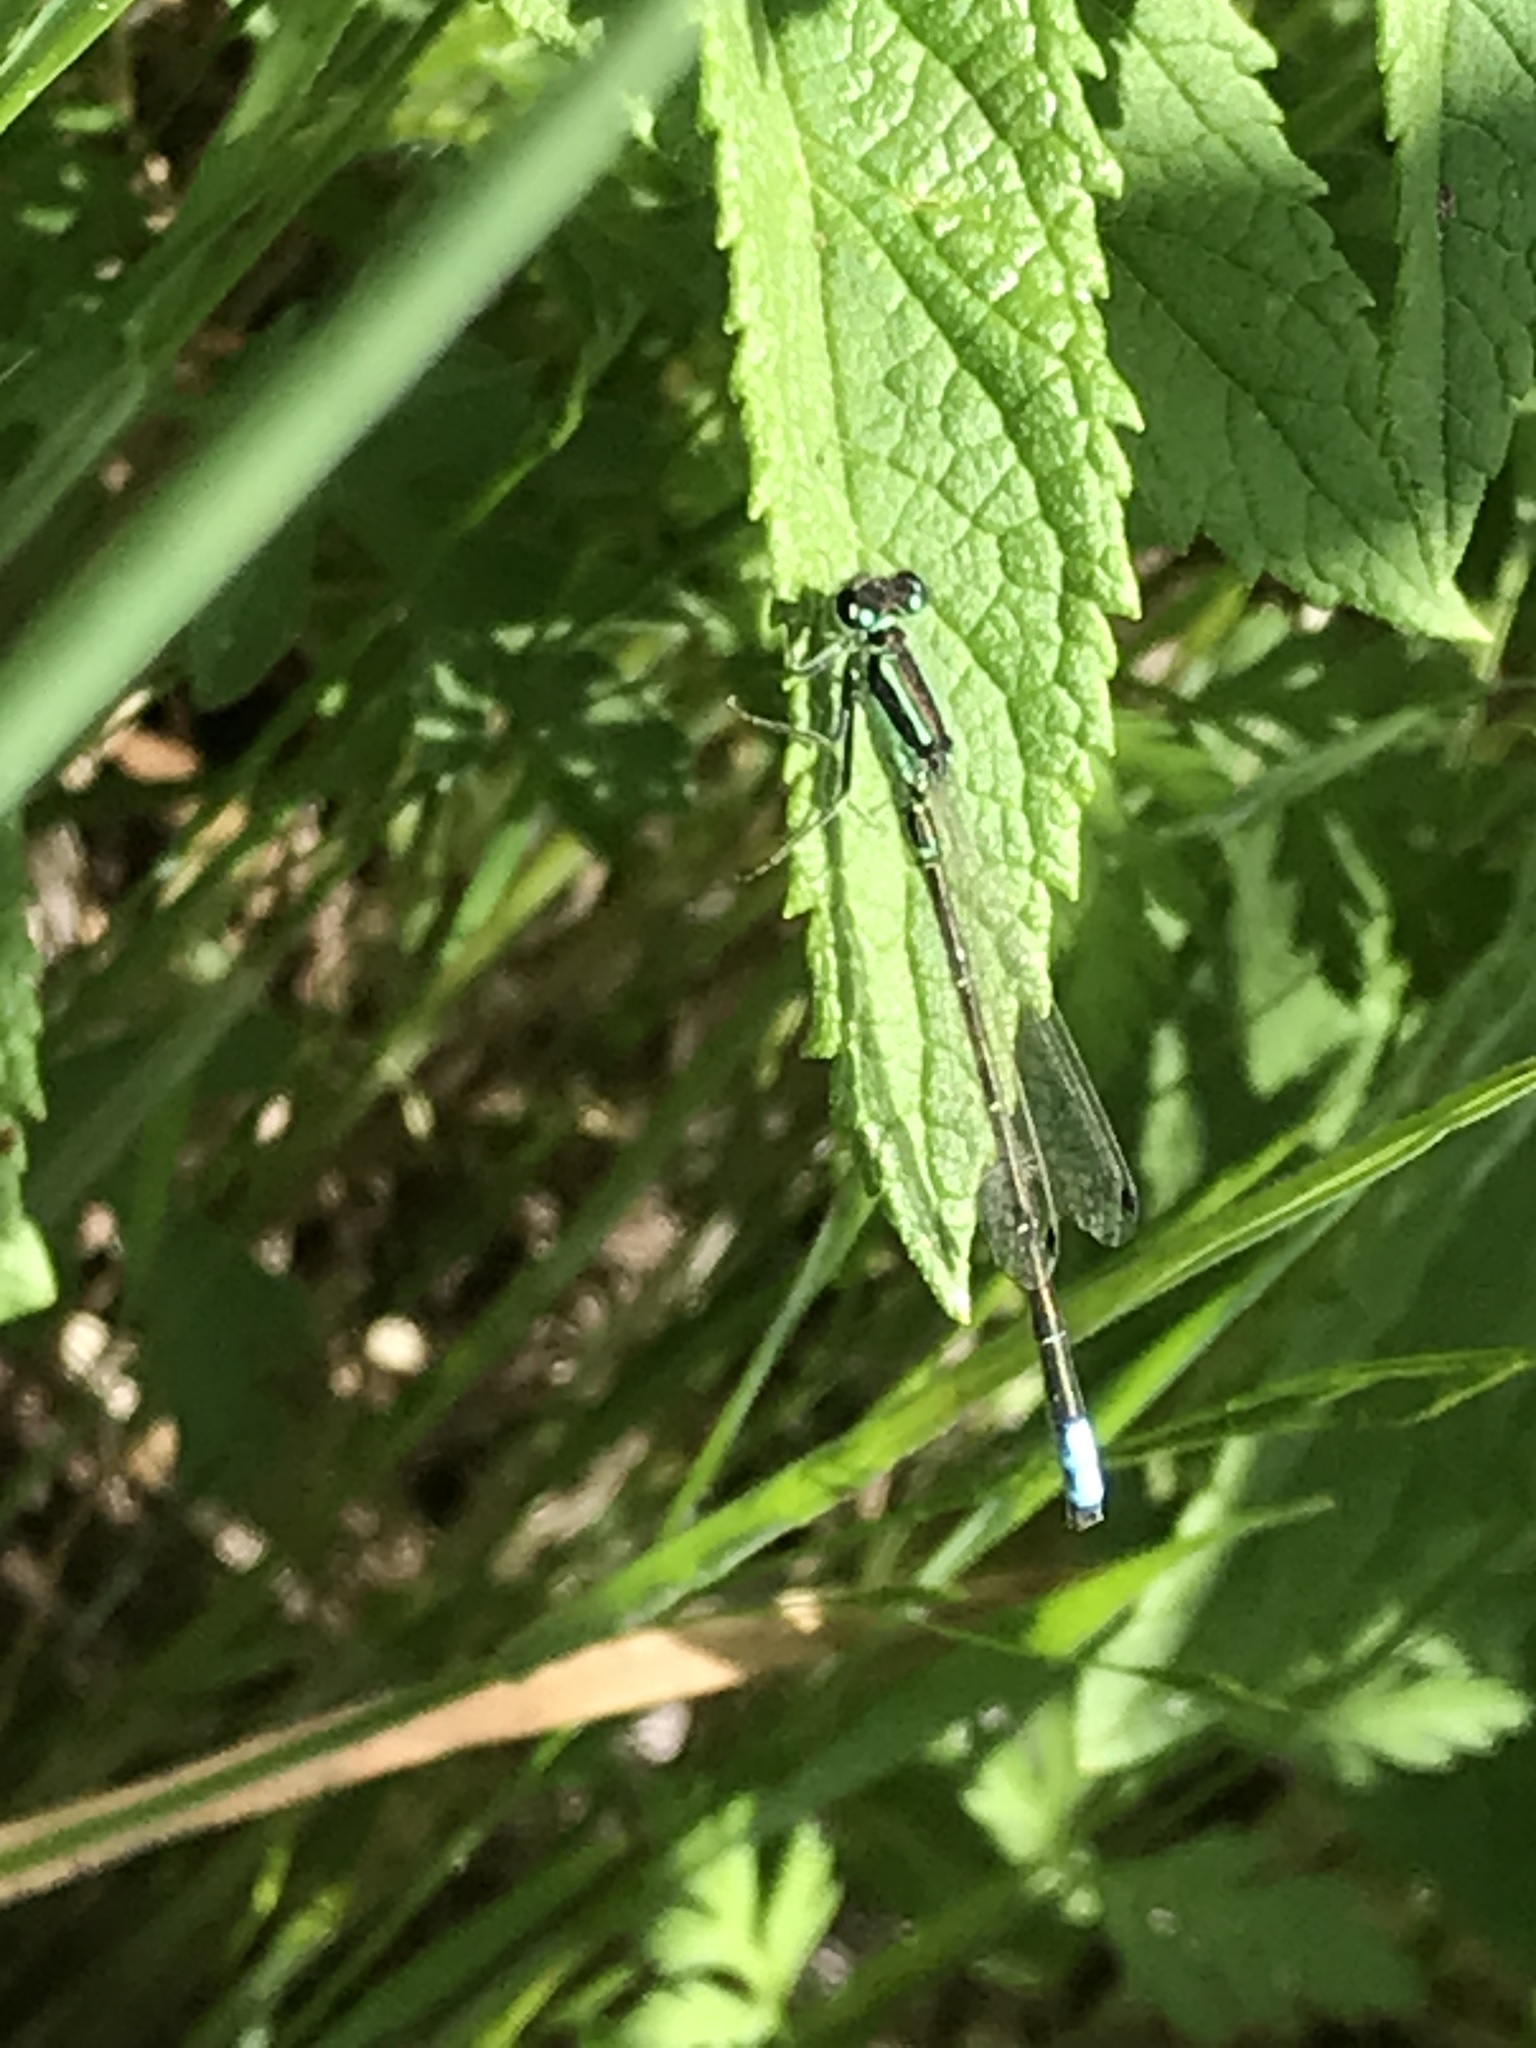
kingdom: Animalia
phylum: Arthropoda
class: Insecta
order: Odonata
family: Coenagrionidae
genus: Ischnura
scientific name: Ischnura verticalis
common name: Eastern forktail
